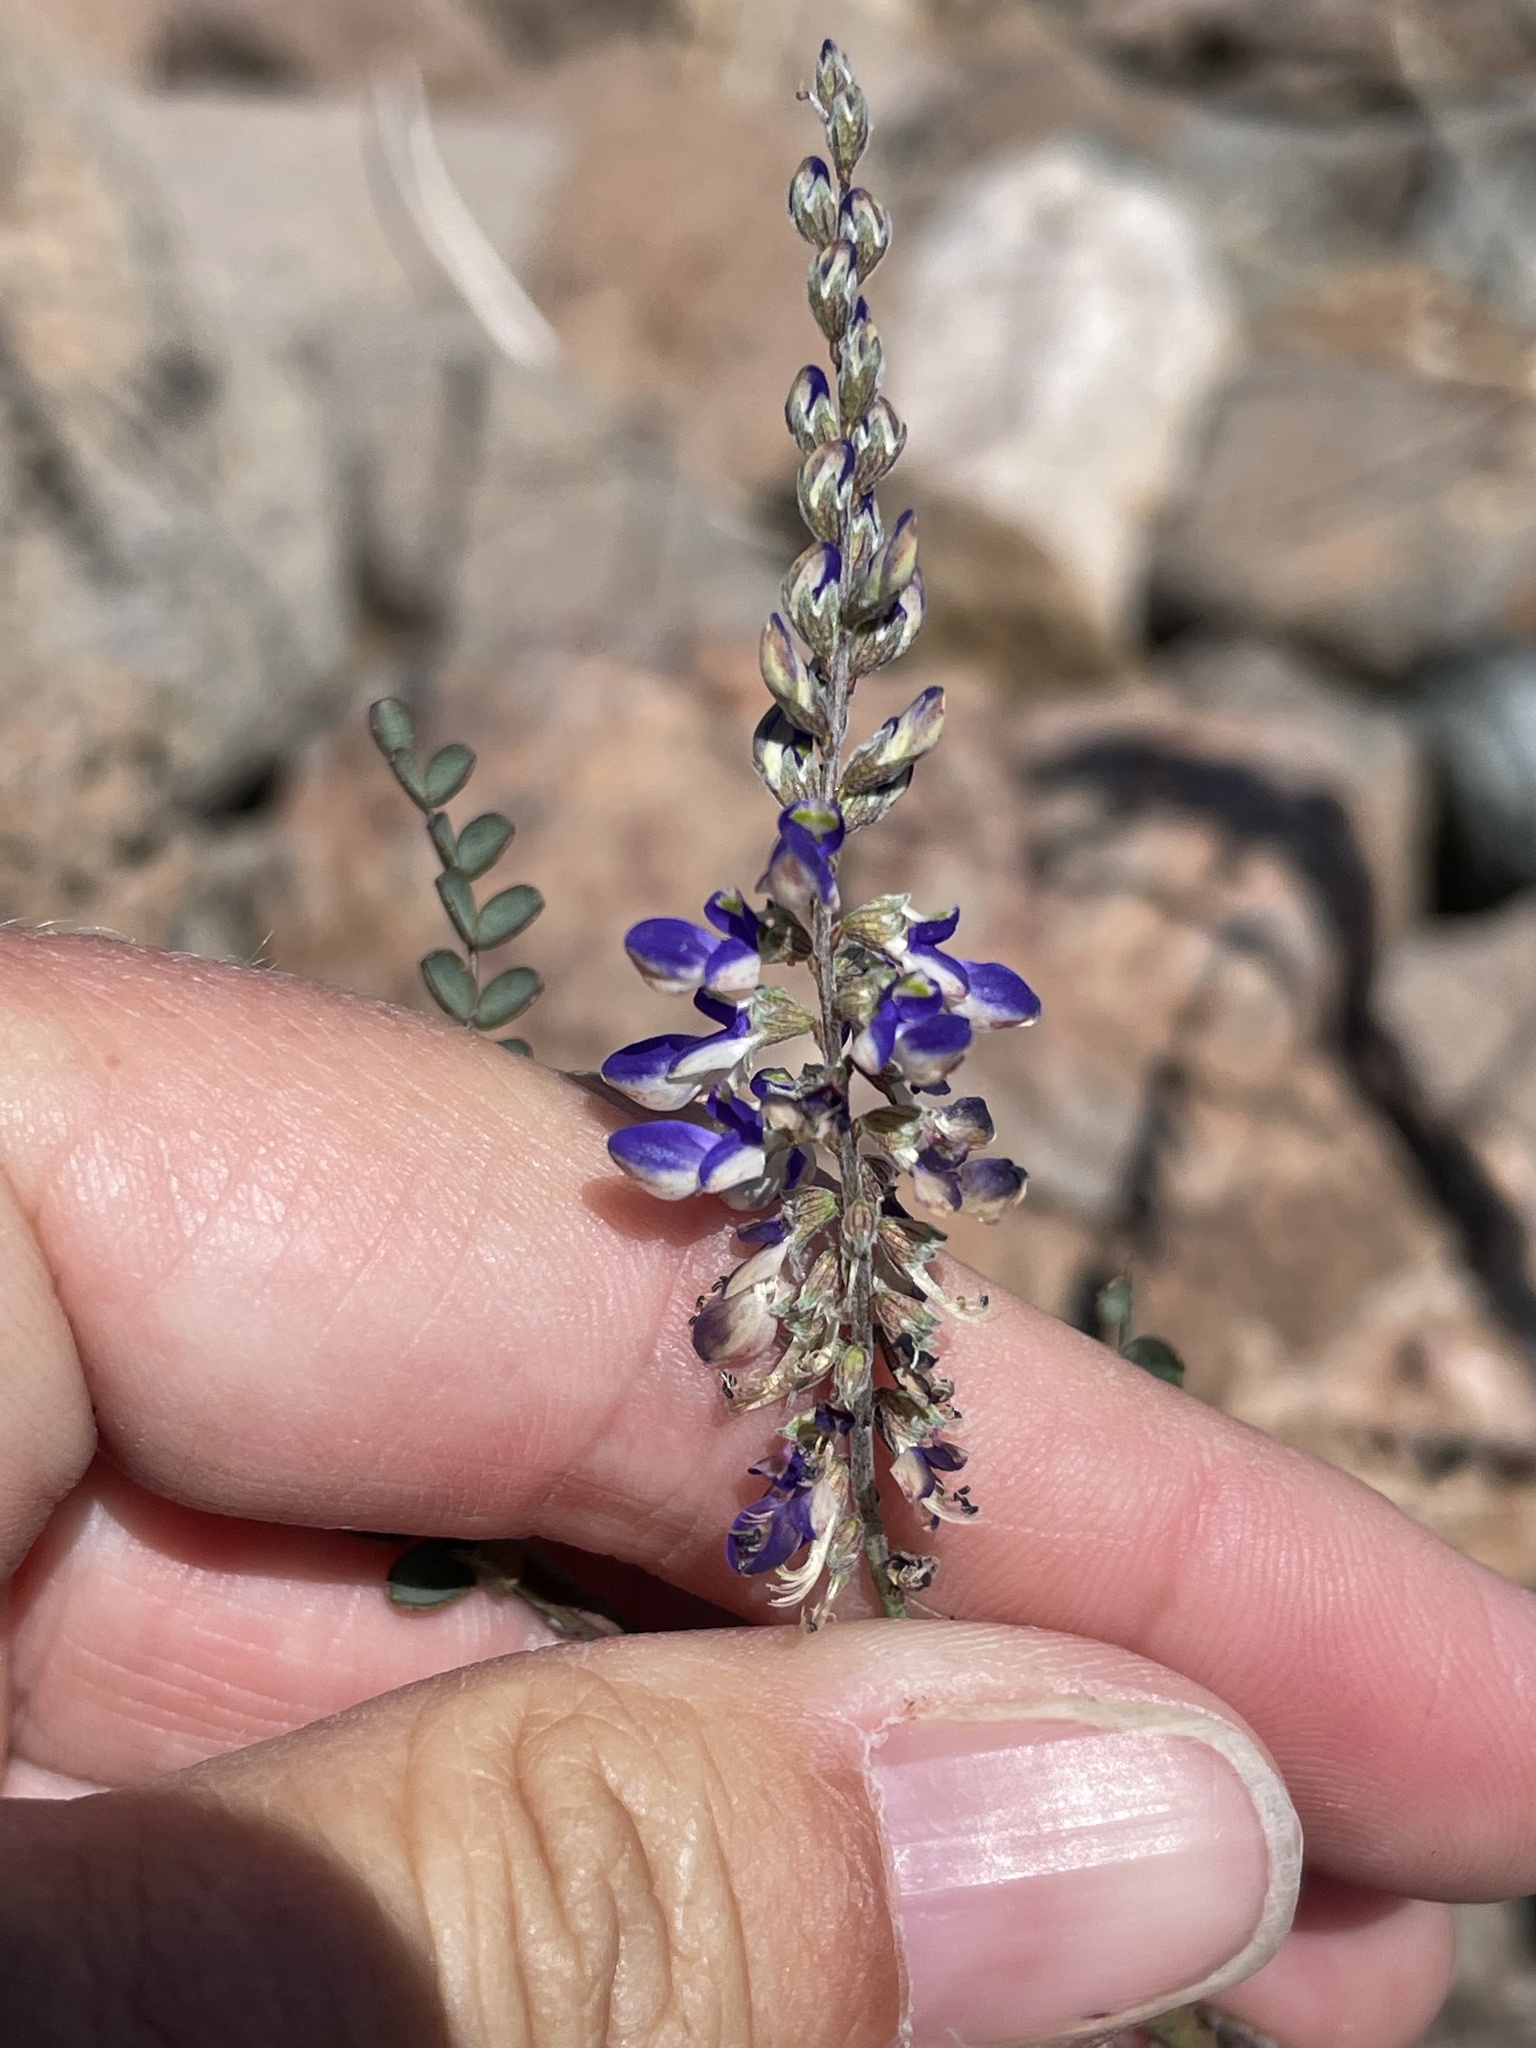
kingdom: Plantae
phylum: Tracheophyta
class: Magnoliopsida
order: Fabales
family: Fabaceae
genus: Marina
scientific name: Marina parryi
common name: Parry's marina
